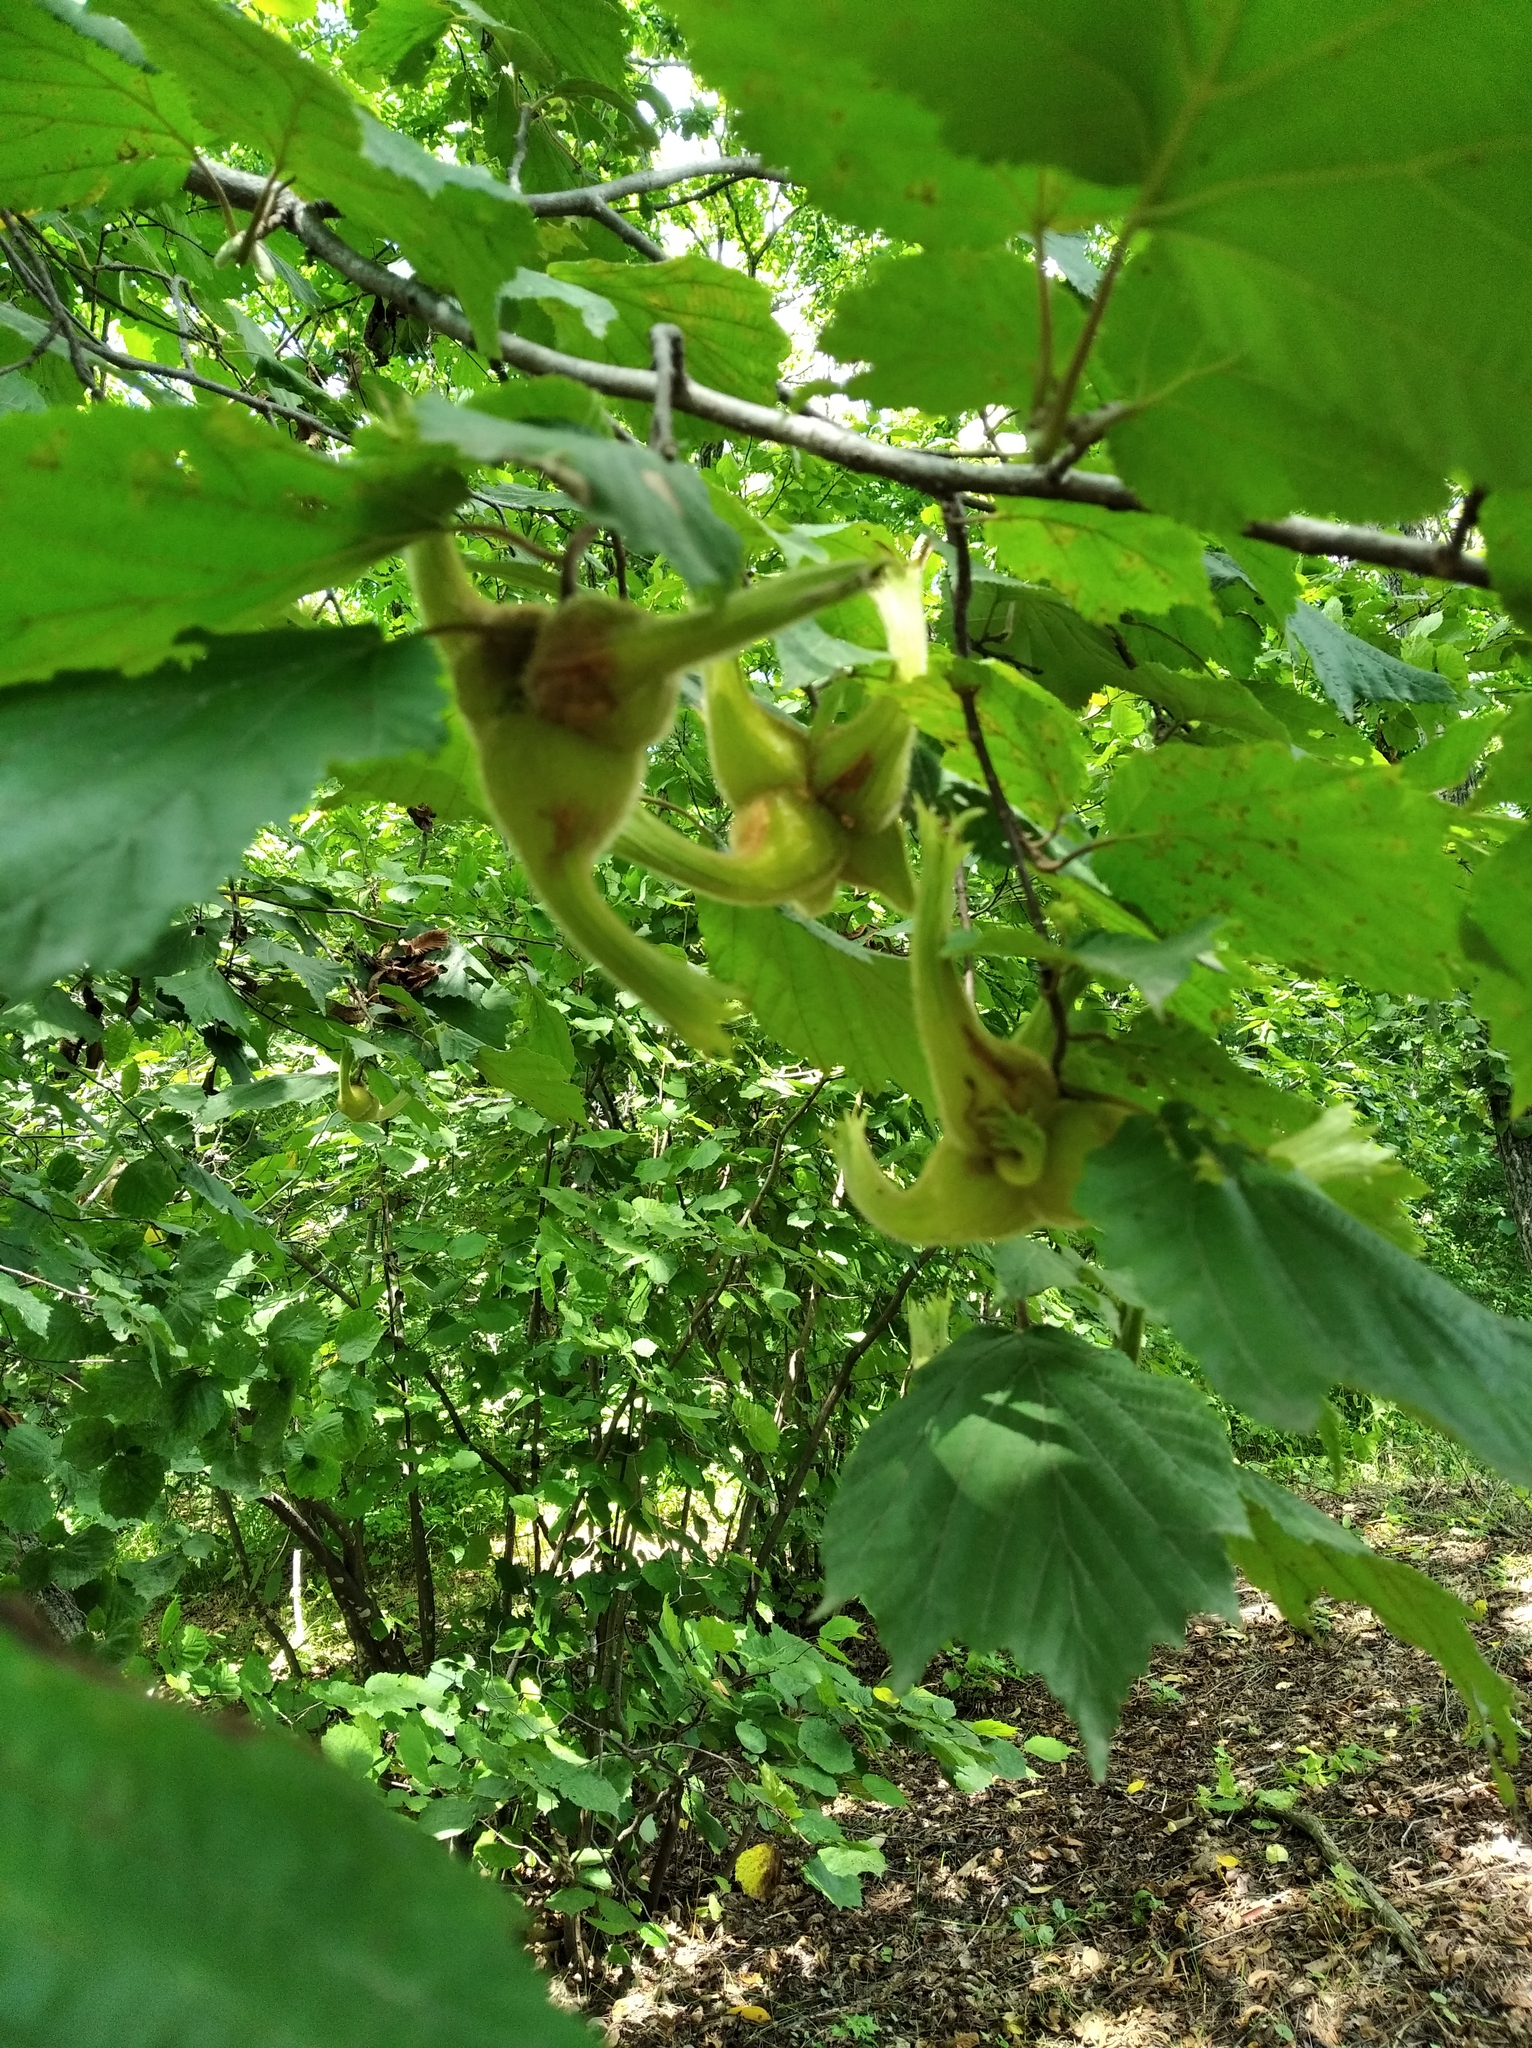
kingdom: Plantae
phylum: Tracheophyta
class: Magnoliopsida
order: Fagales
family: Betulaceae
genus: Corylus
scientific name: Corylus sieboldiana
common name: Japanese hazel
